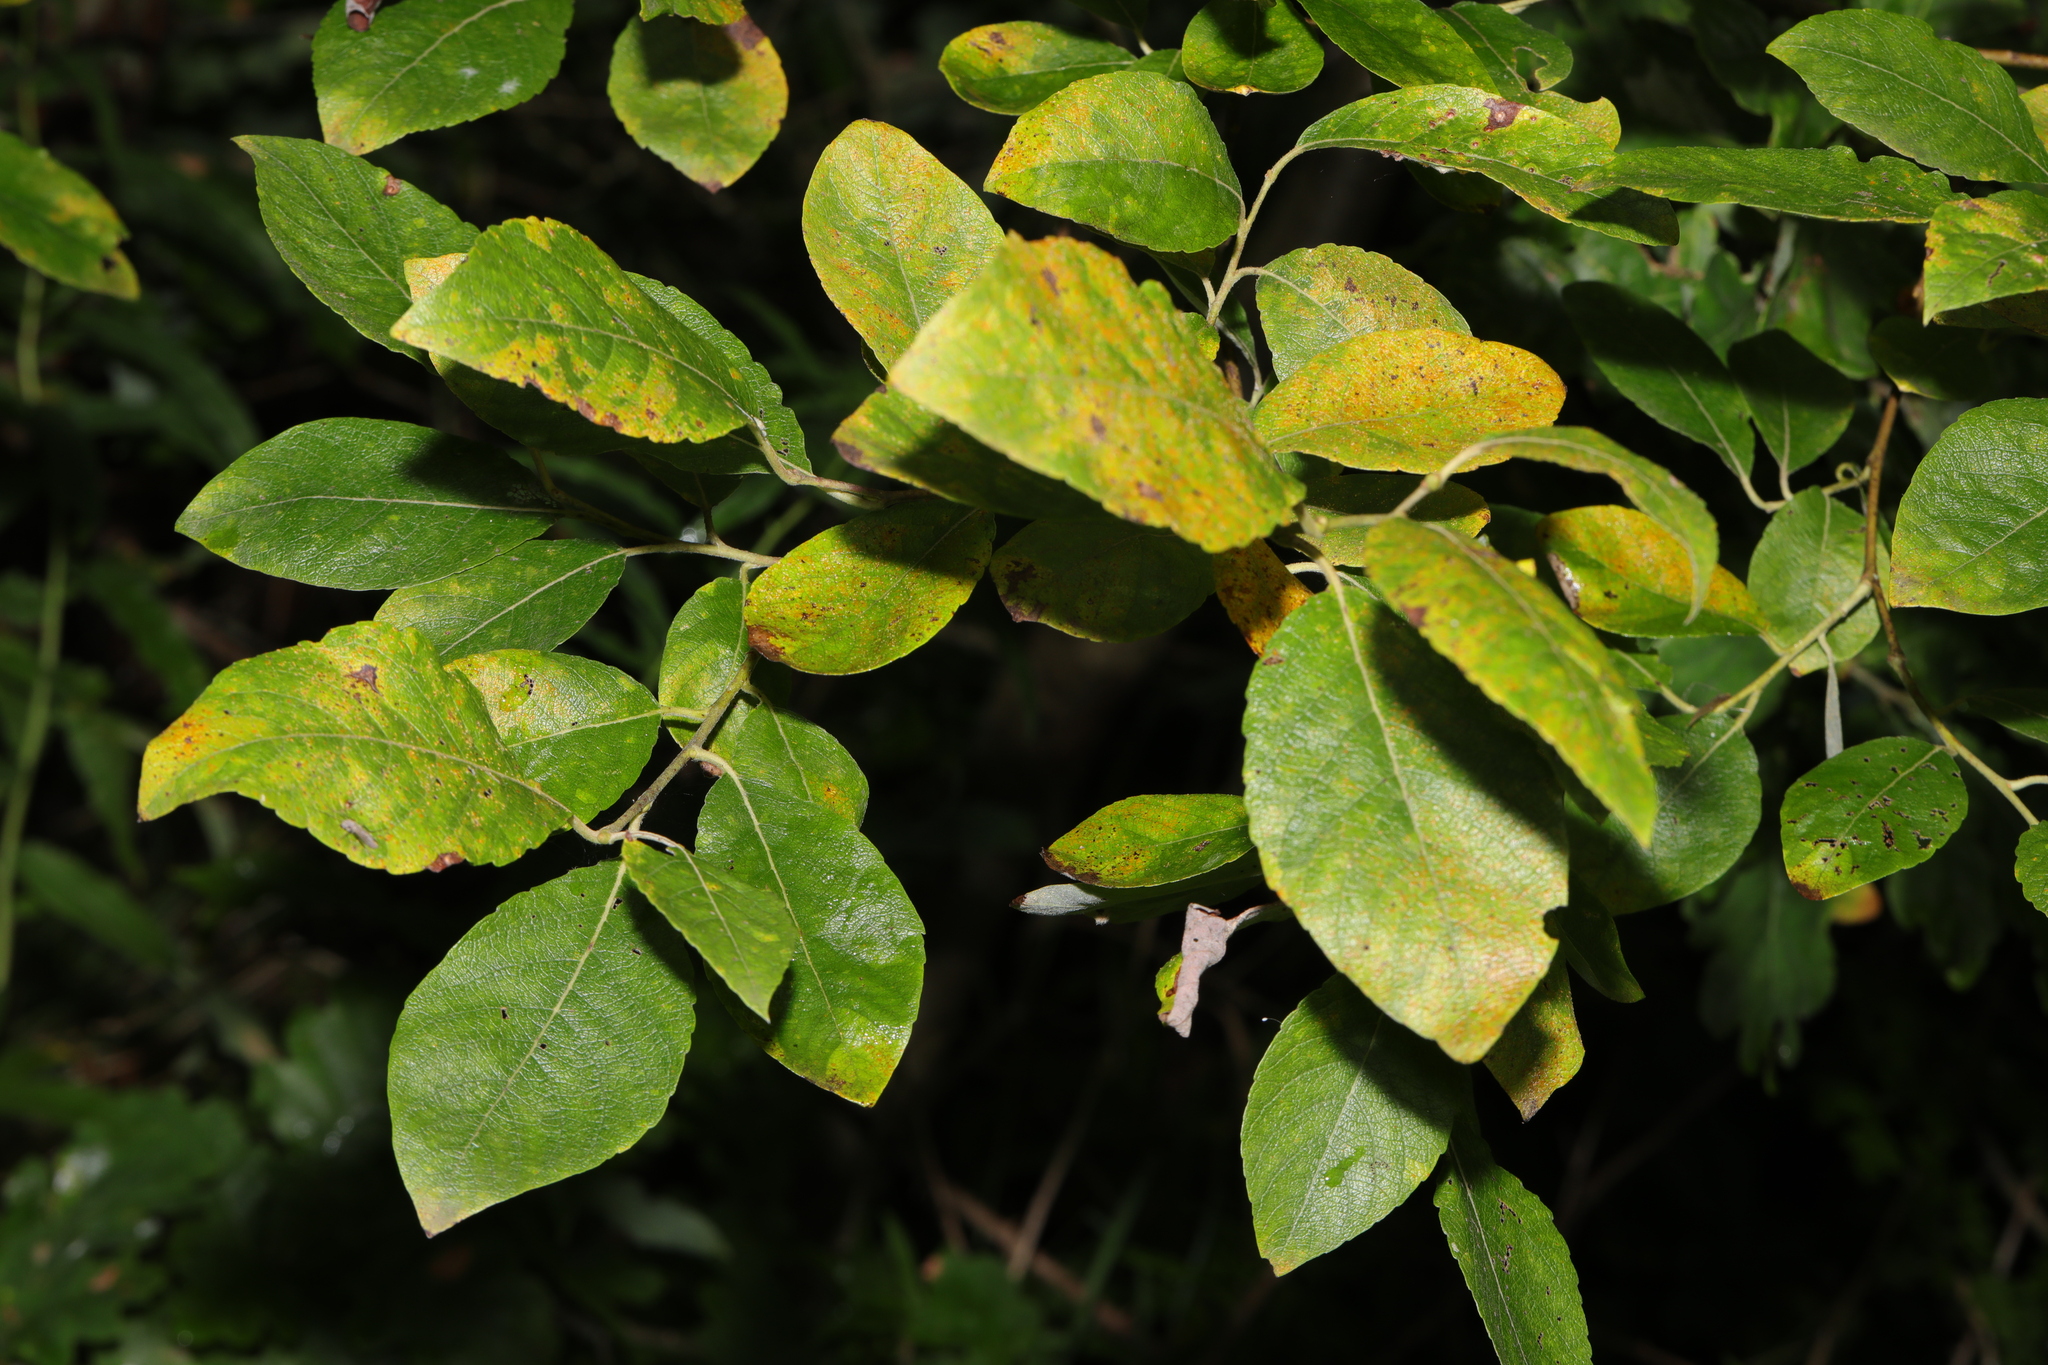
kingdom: Plantae
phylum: Tracheophyta
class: Magnoliopsida
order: Malpighiales
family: Salicaceae
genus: Salix
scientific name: Salix caprea
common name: Goat willow
